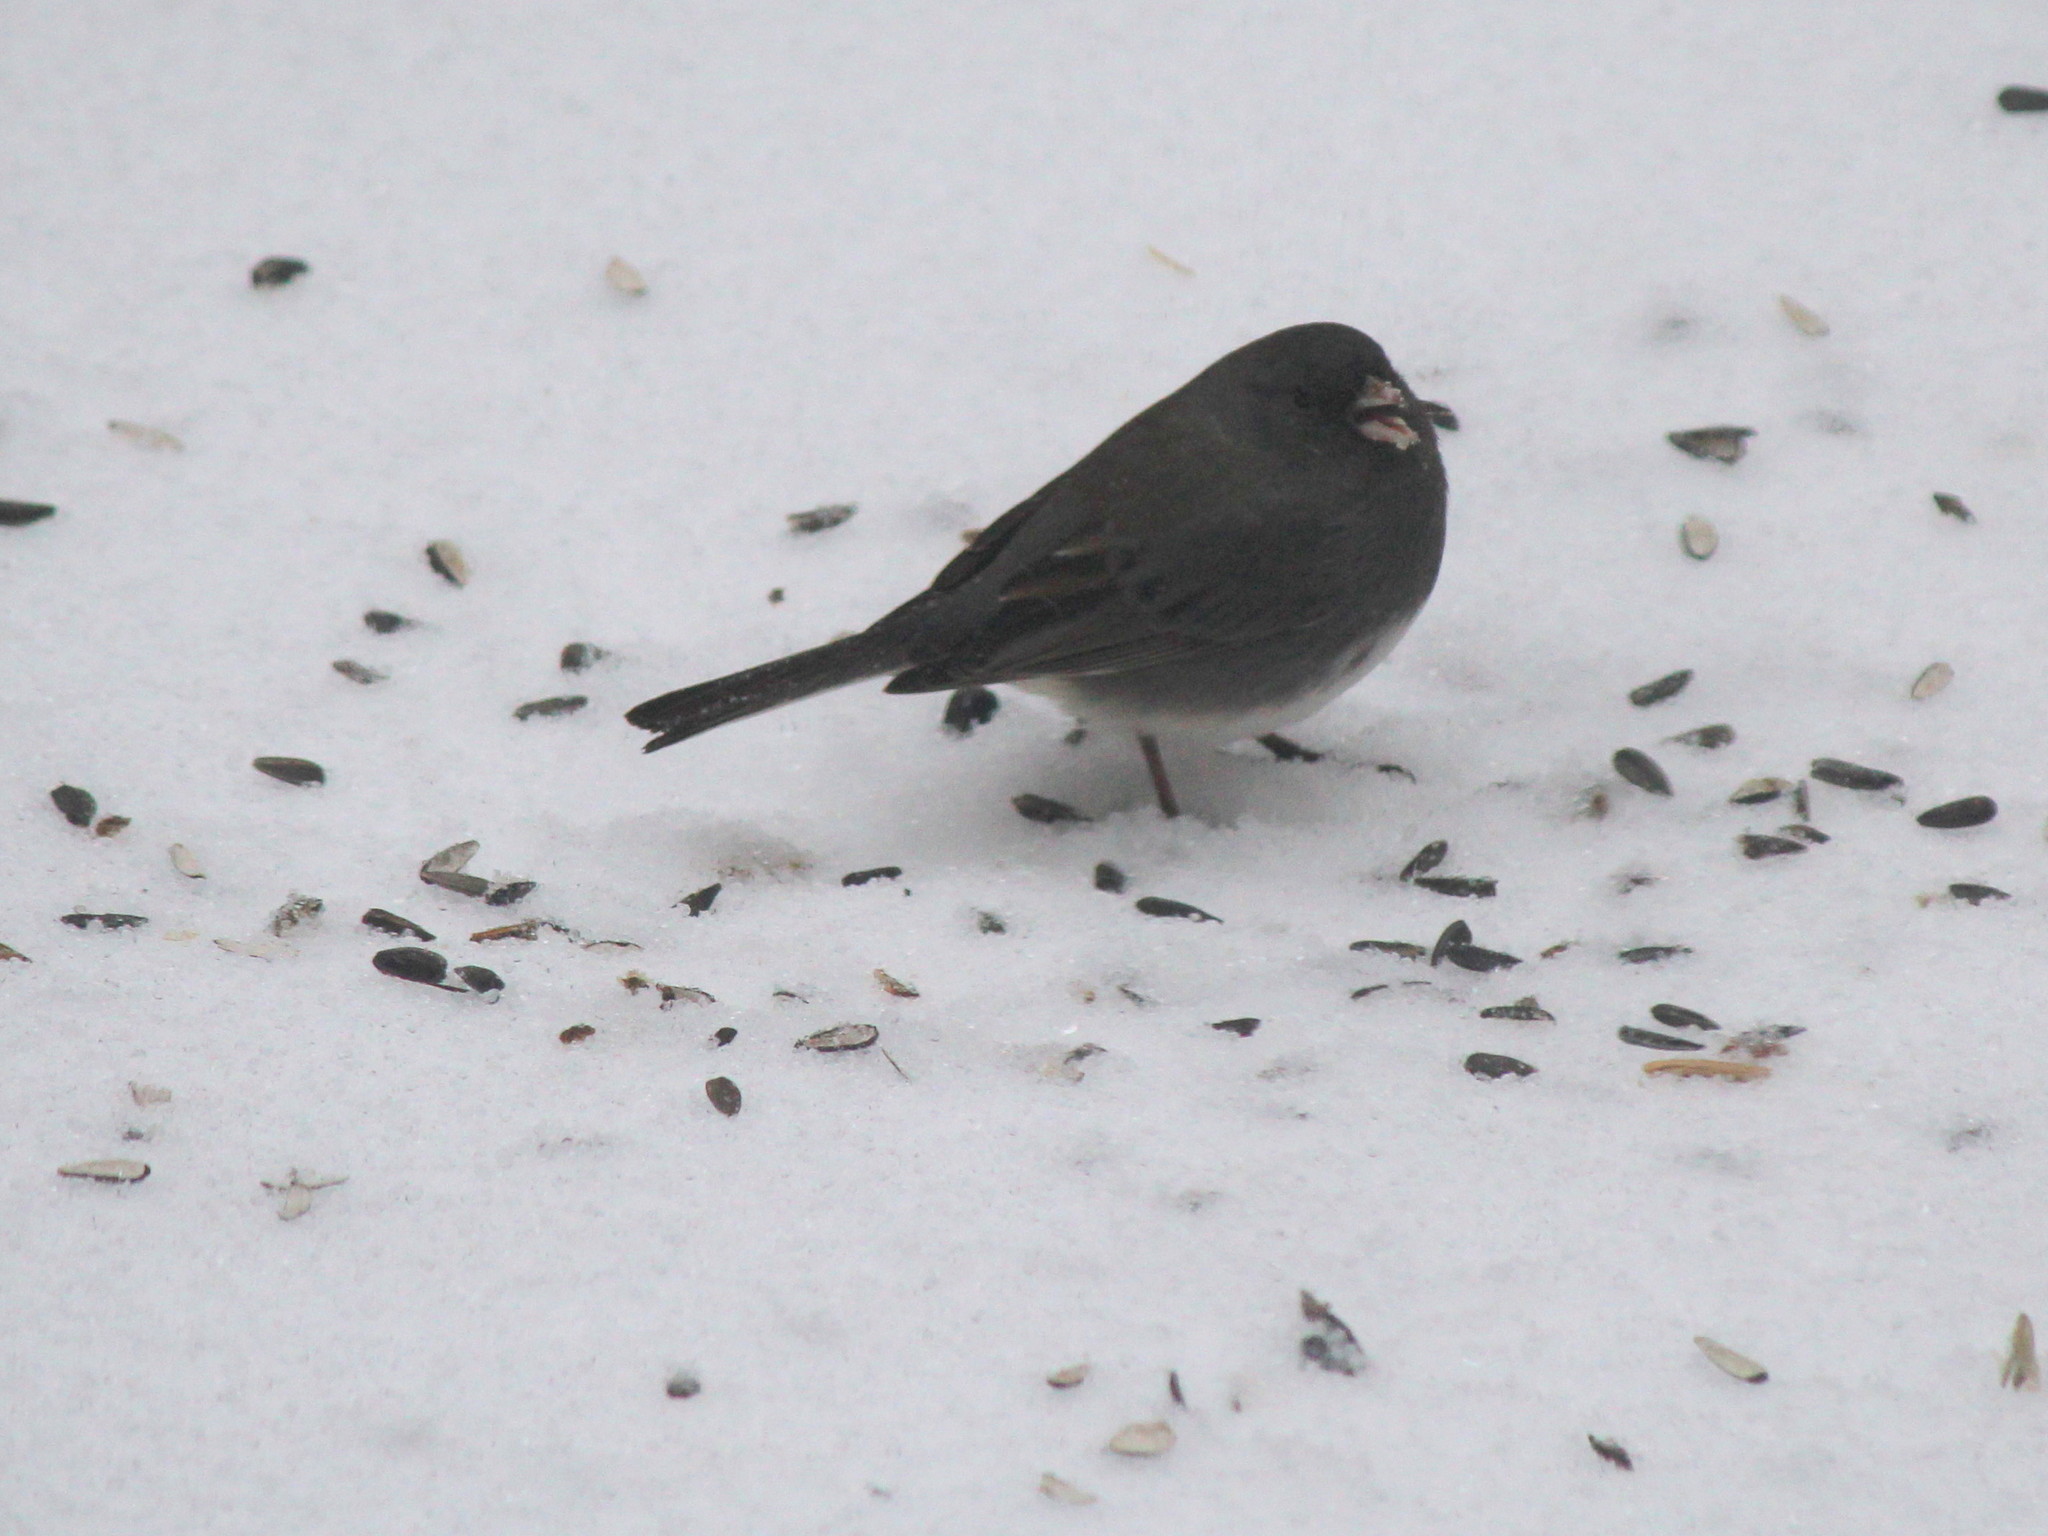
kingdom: Animalia
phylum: Chordata
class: Aves
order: Passeriformes
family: Passerellidae
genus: Junco
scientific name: Junco hyemalis
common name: Dark-eyed junco
